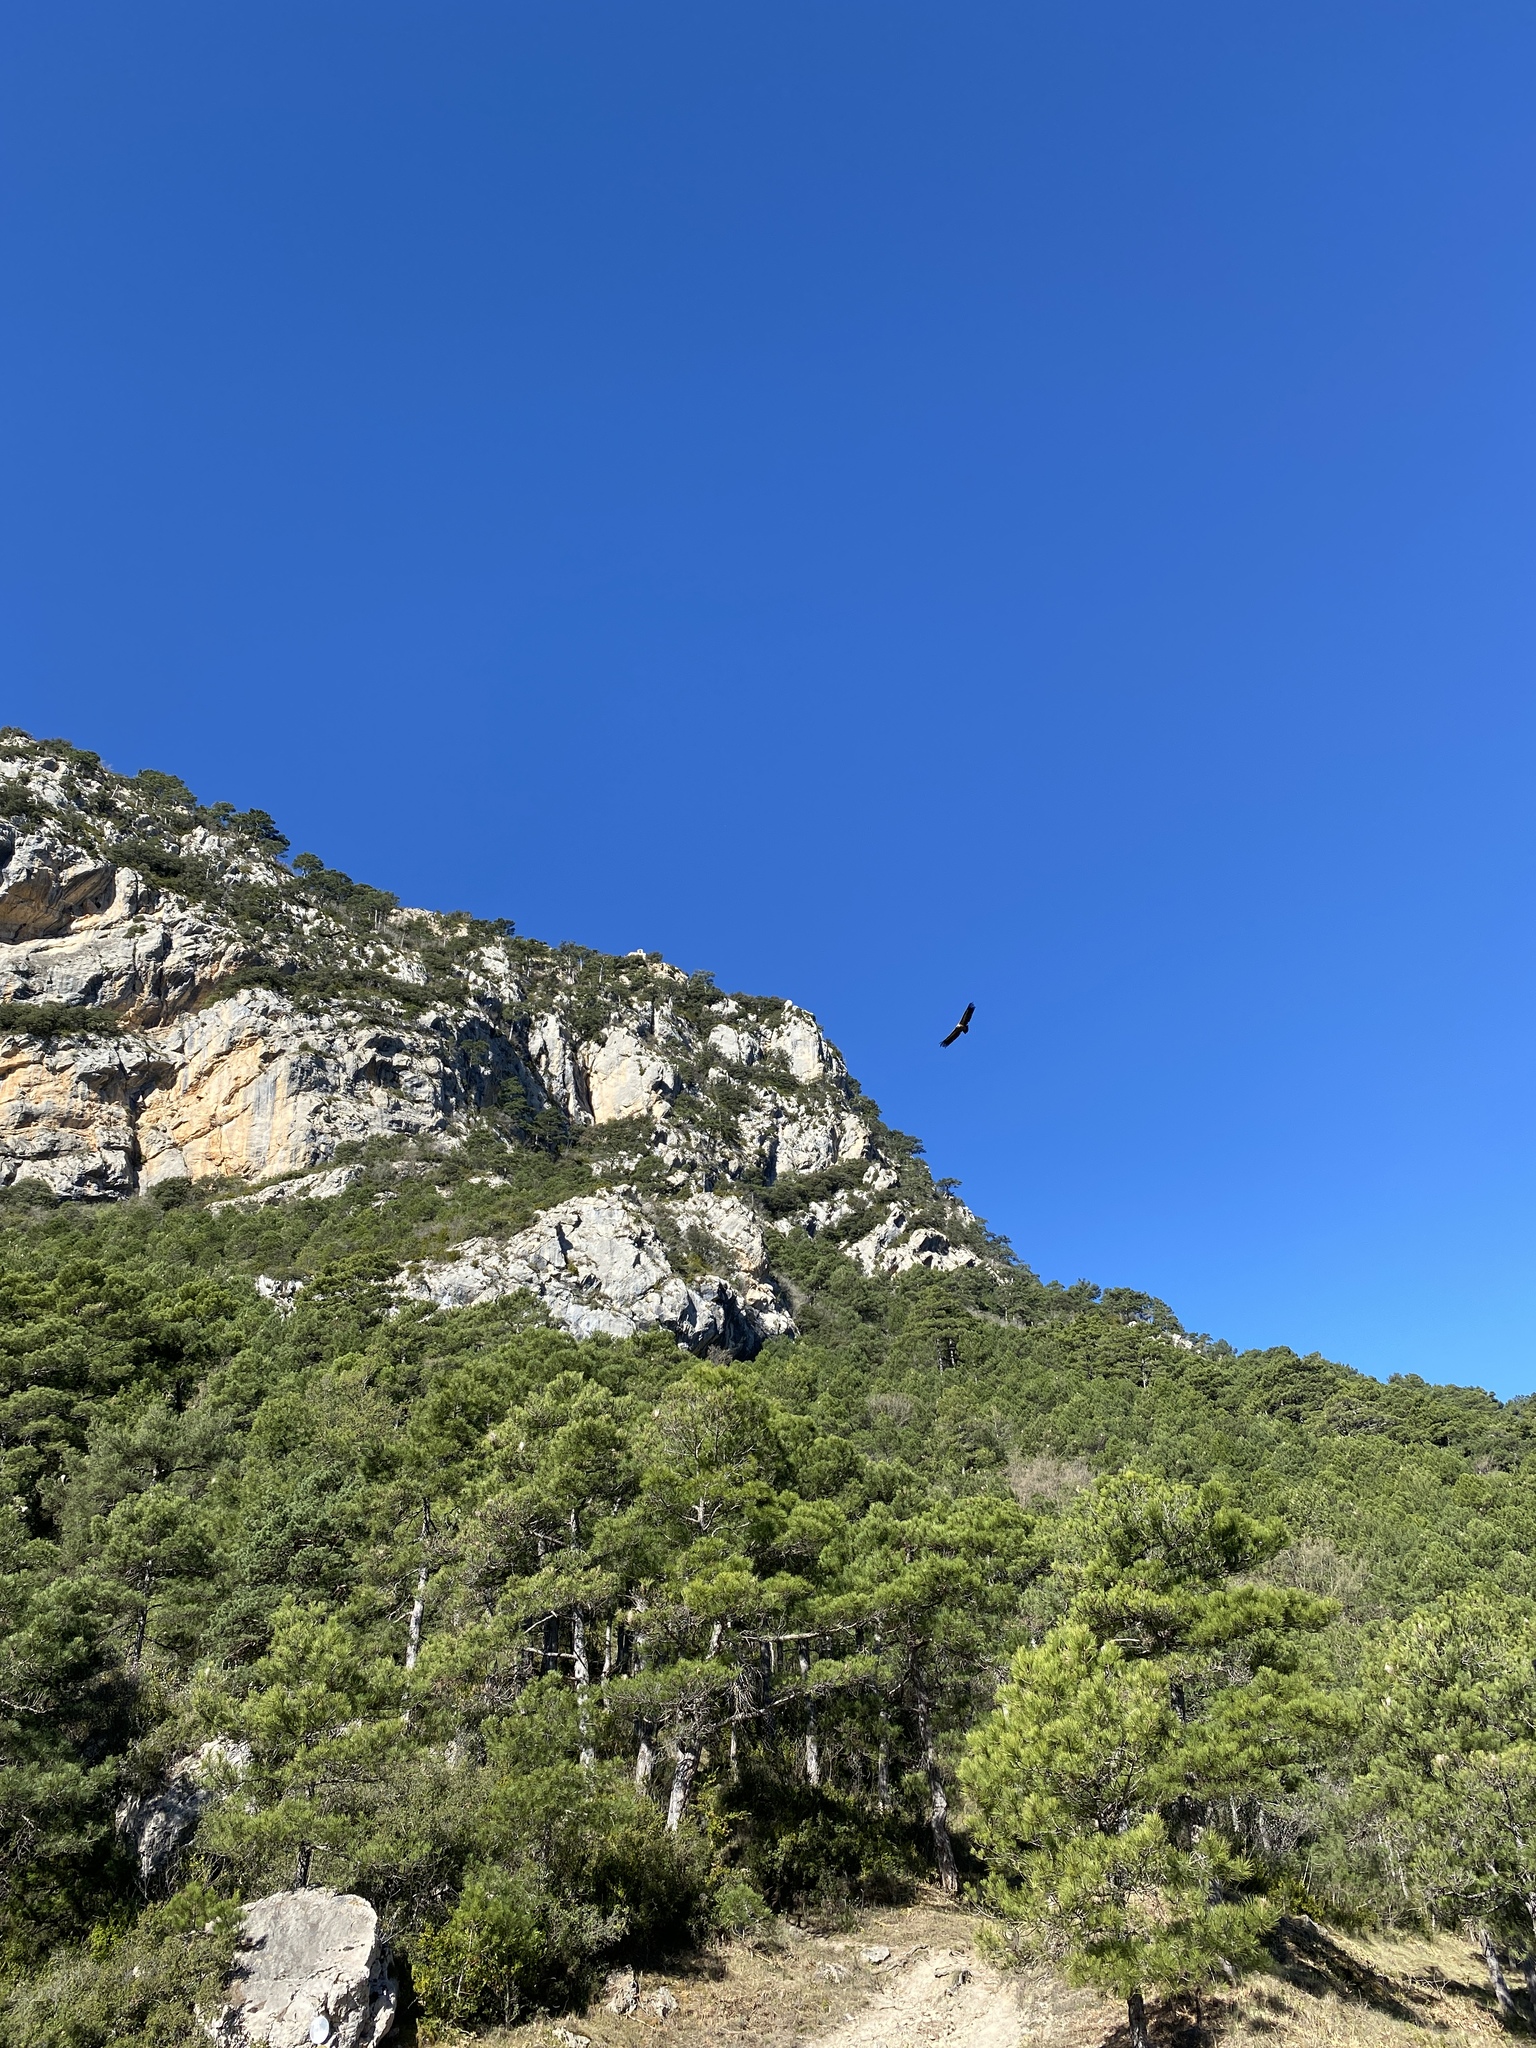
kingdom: Animalia
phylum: Chordata
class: Aves
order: Accipitriformes
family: Accipitridae
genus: Gyps
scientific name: Gyps fulvus
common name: Griffon vulture
